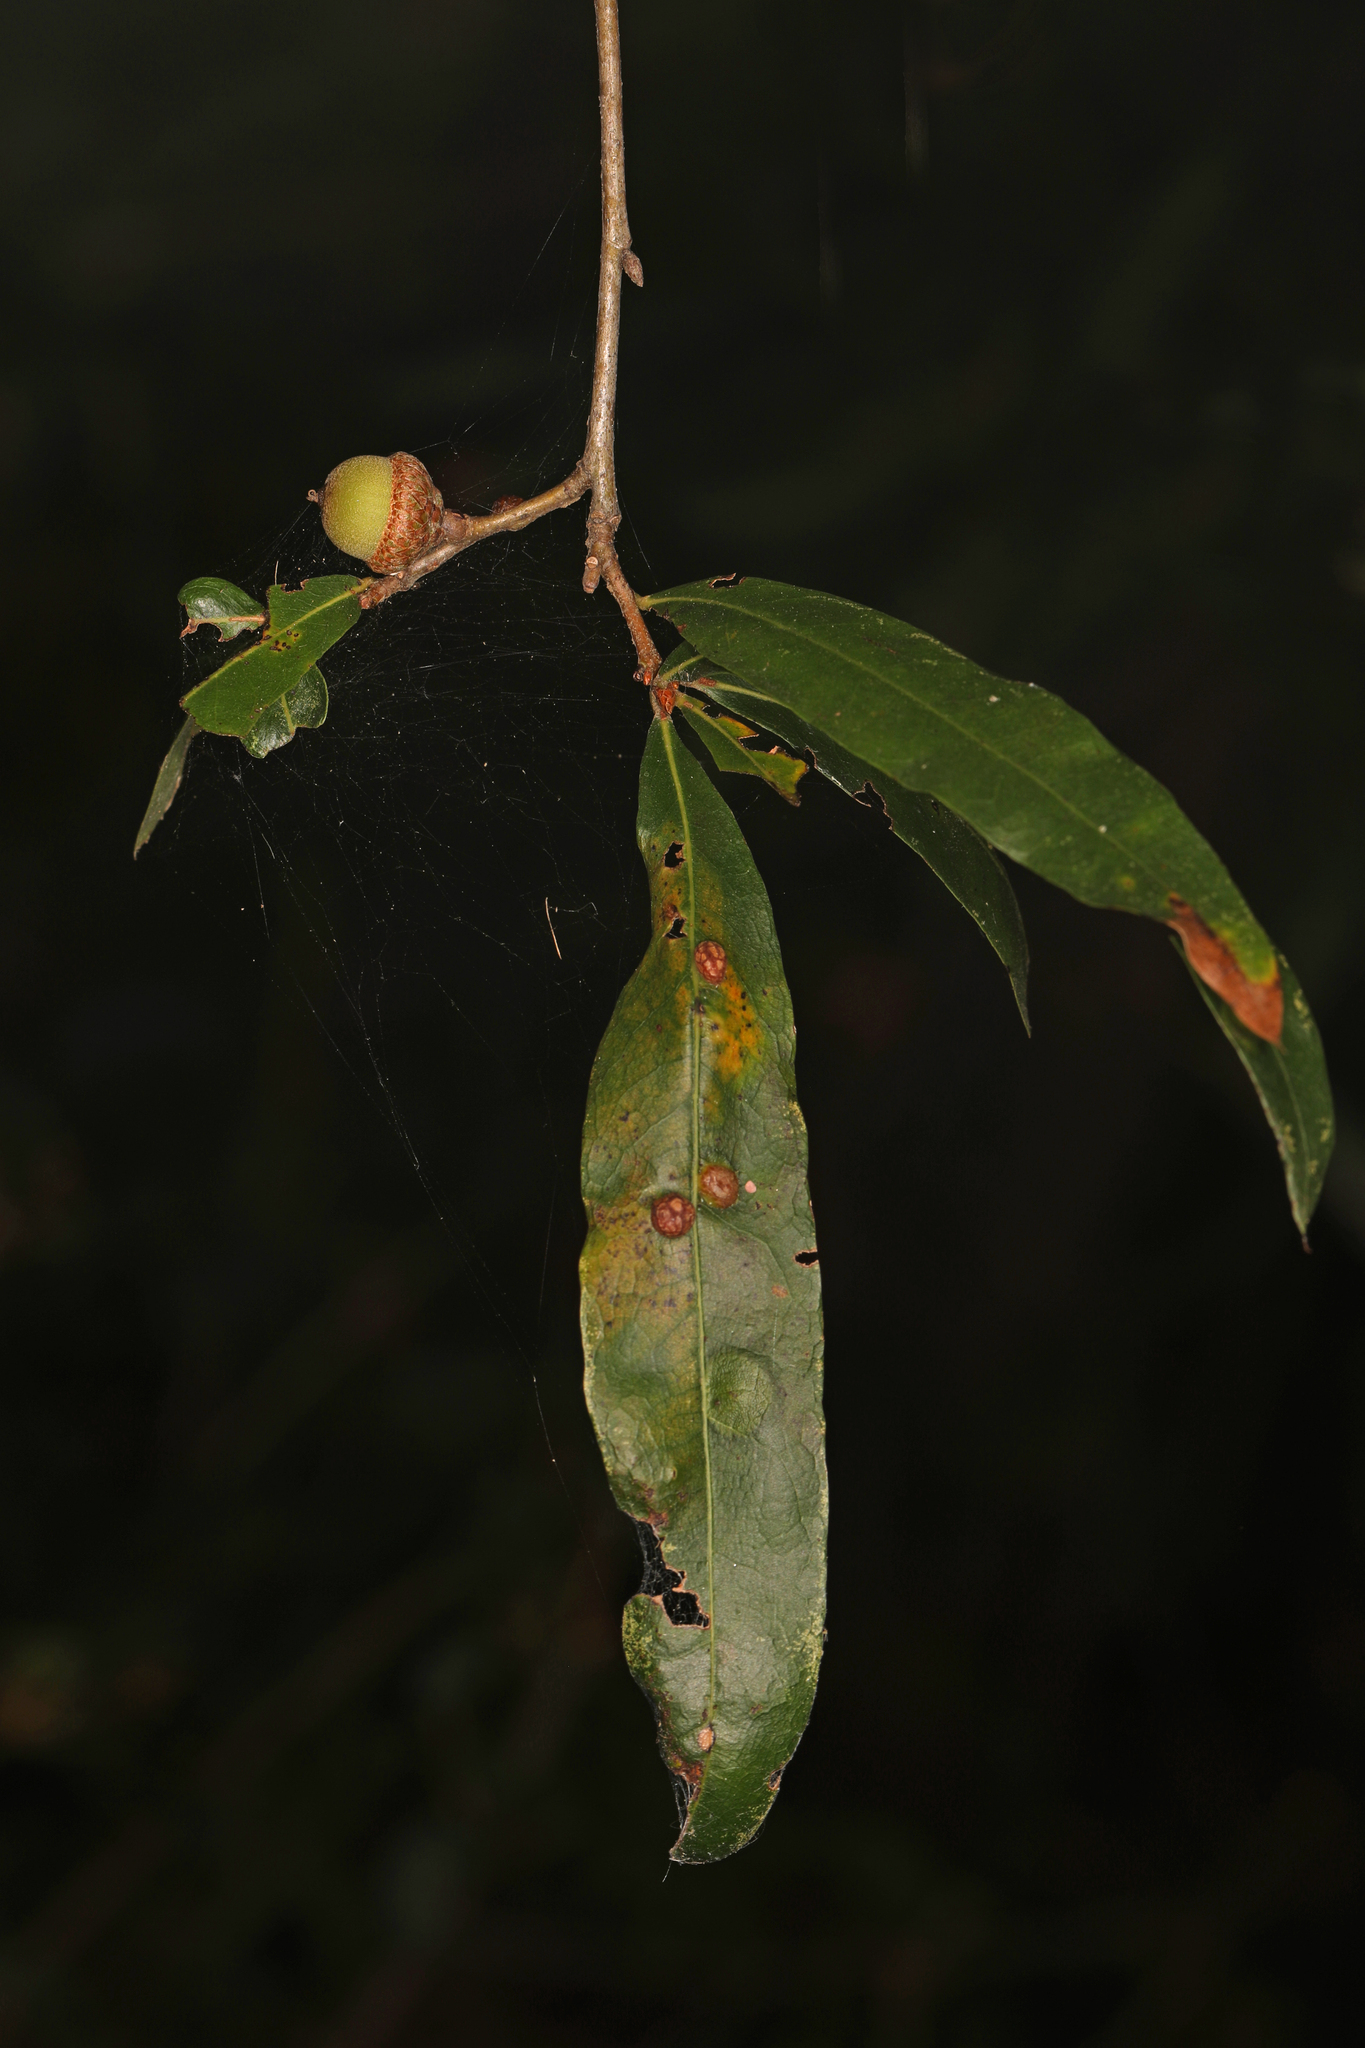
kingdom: Plantae
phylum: Tracheophyta
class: Magnoliopsida
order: Fagales
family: Fagaceae
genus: Quercus
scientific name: Quercus phellos
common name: Willow oak
